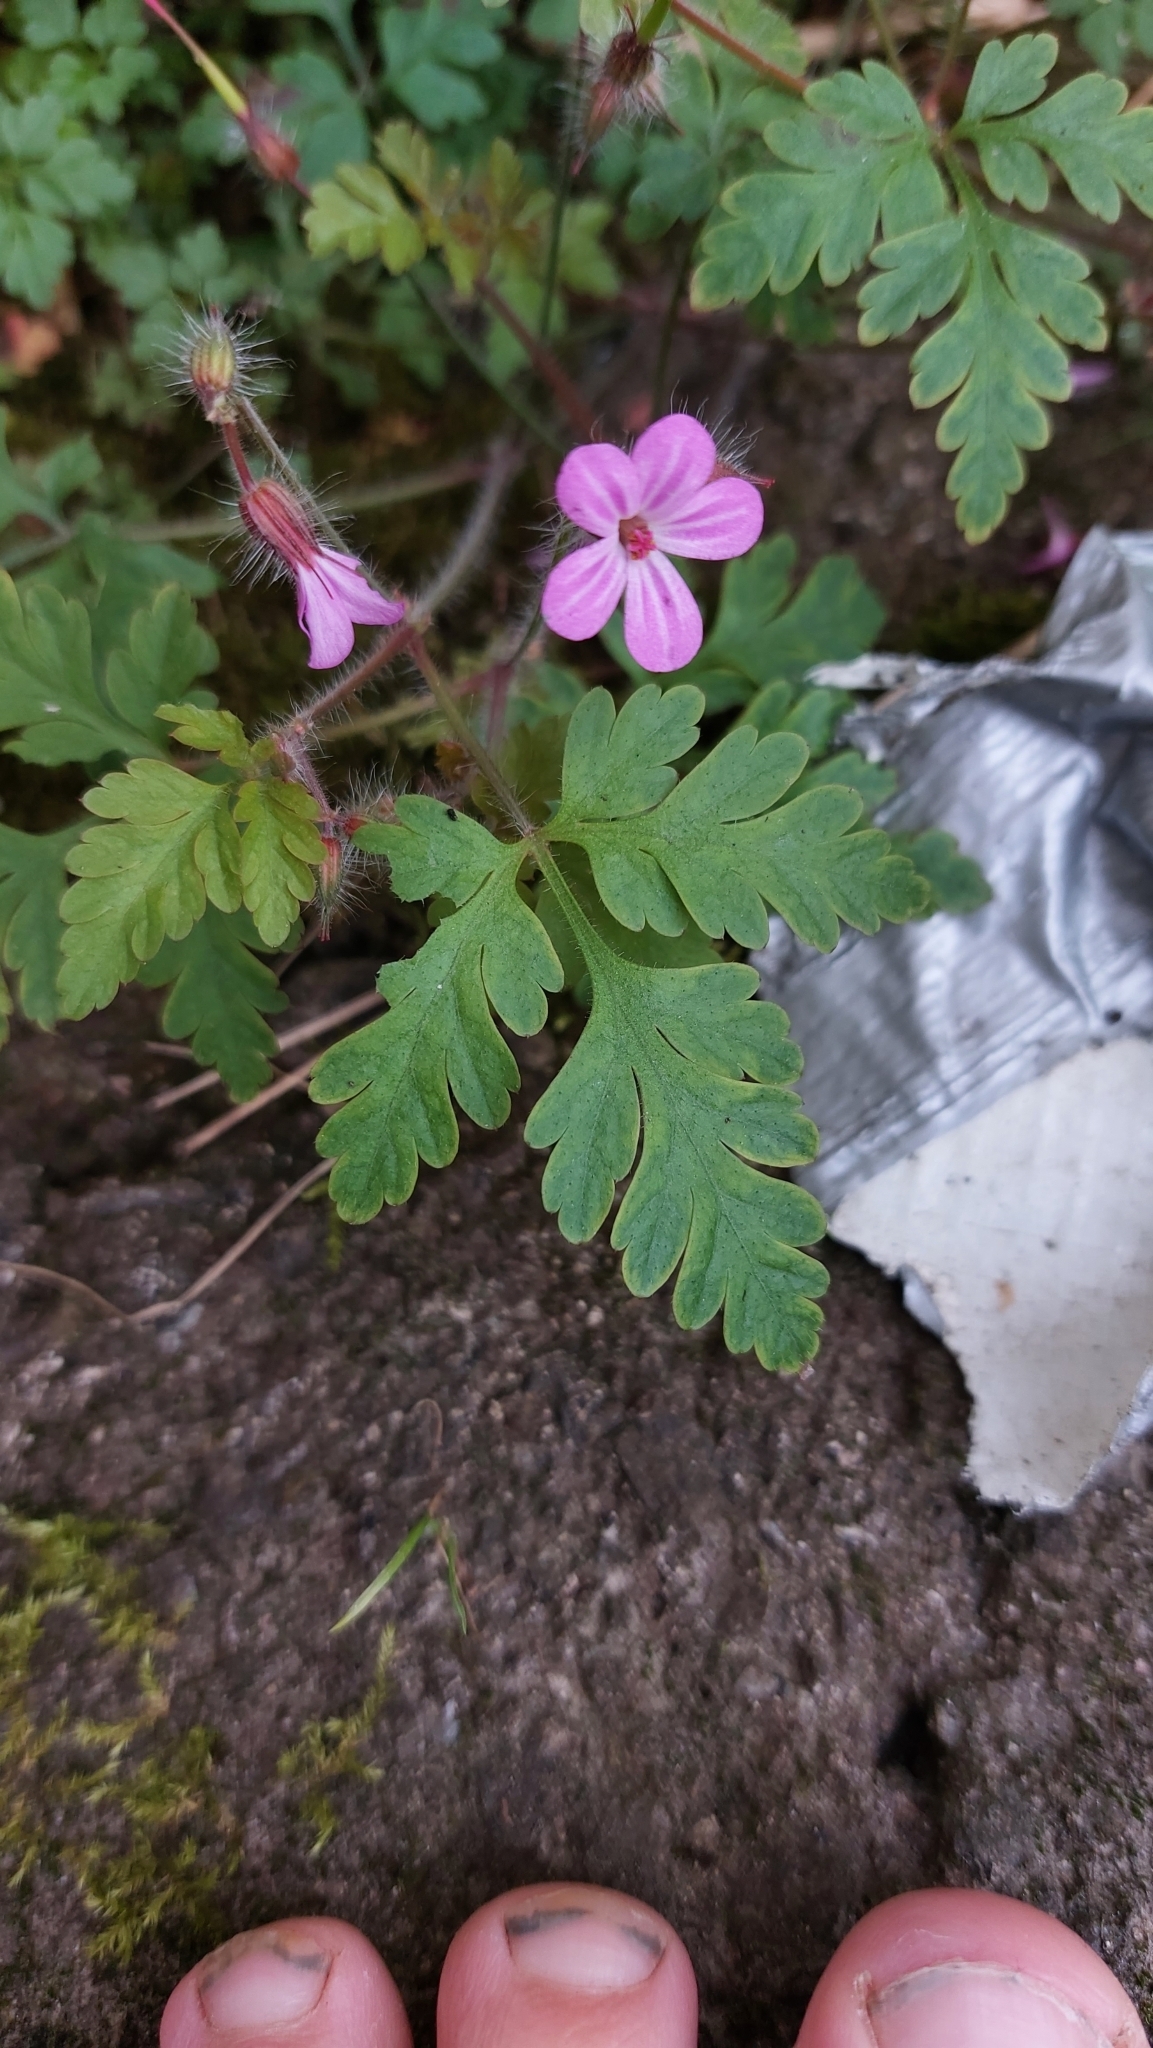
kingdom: Plantae
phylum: Tracheophyta
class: Magnoliopsida
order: Geraniales
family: Geraniaceae
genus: Geranium
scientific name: Geranium robertianum
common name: Herb-robert
